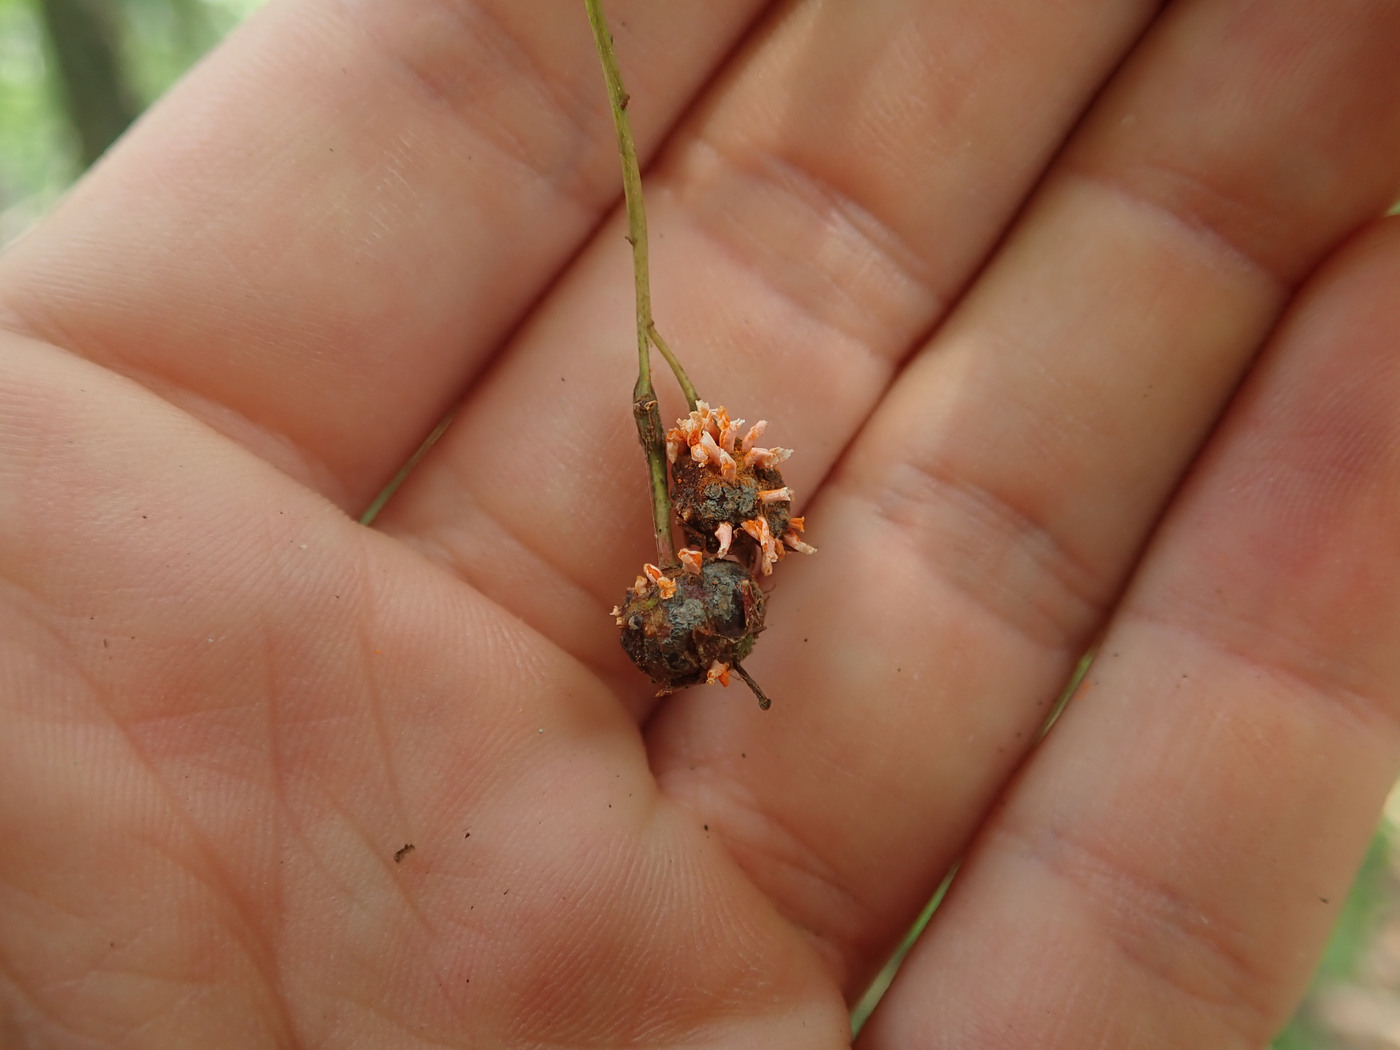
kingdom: Fungi
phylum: Basidiomycota
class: Pucciniomycetes
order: Pucciniales
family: Gymnosporangiaceae
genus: Gymnosporangium
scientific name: Gymnosporangium clavipes
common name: Quince rust
